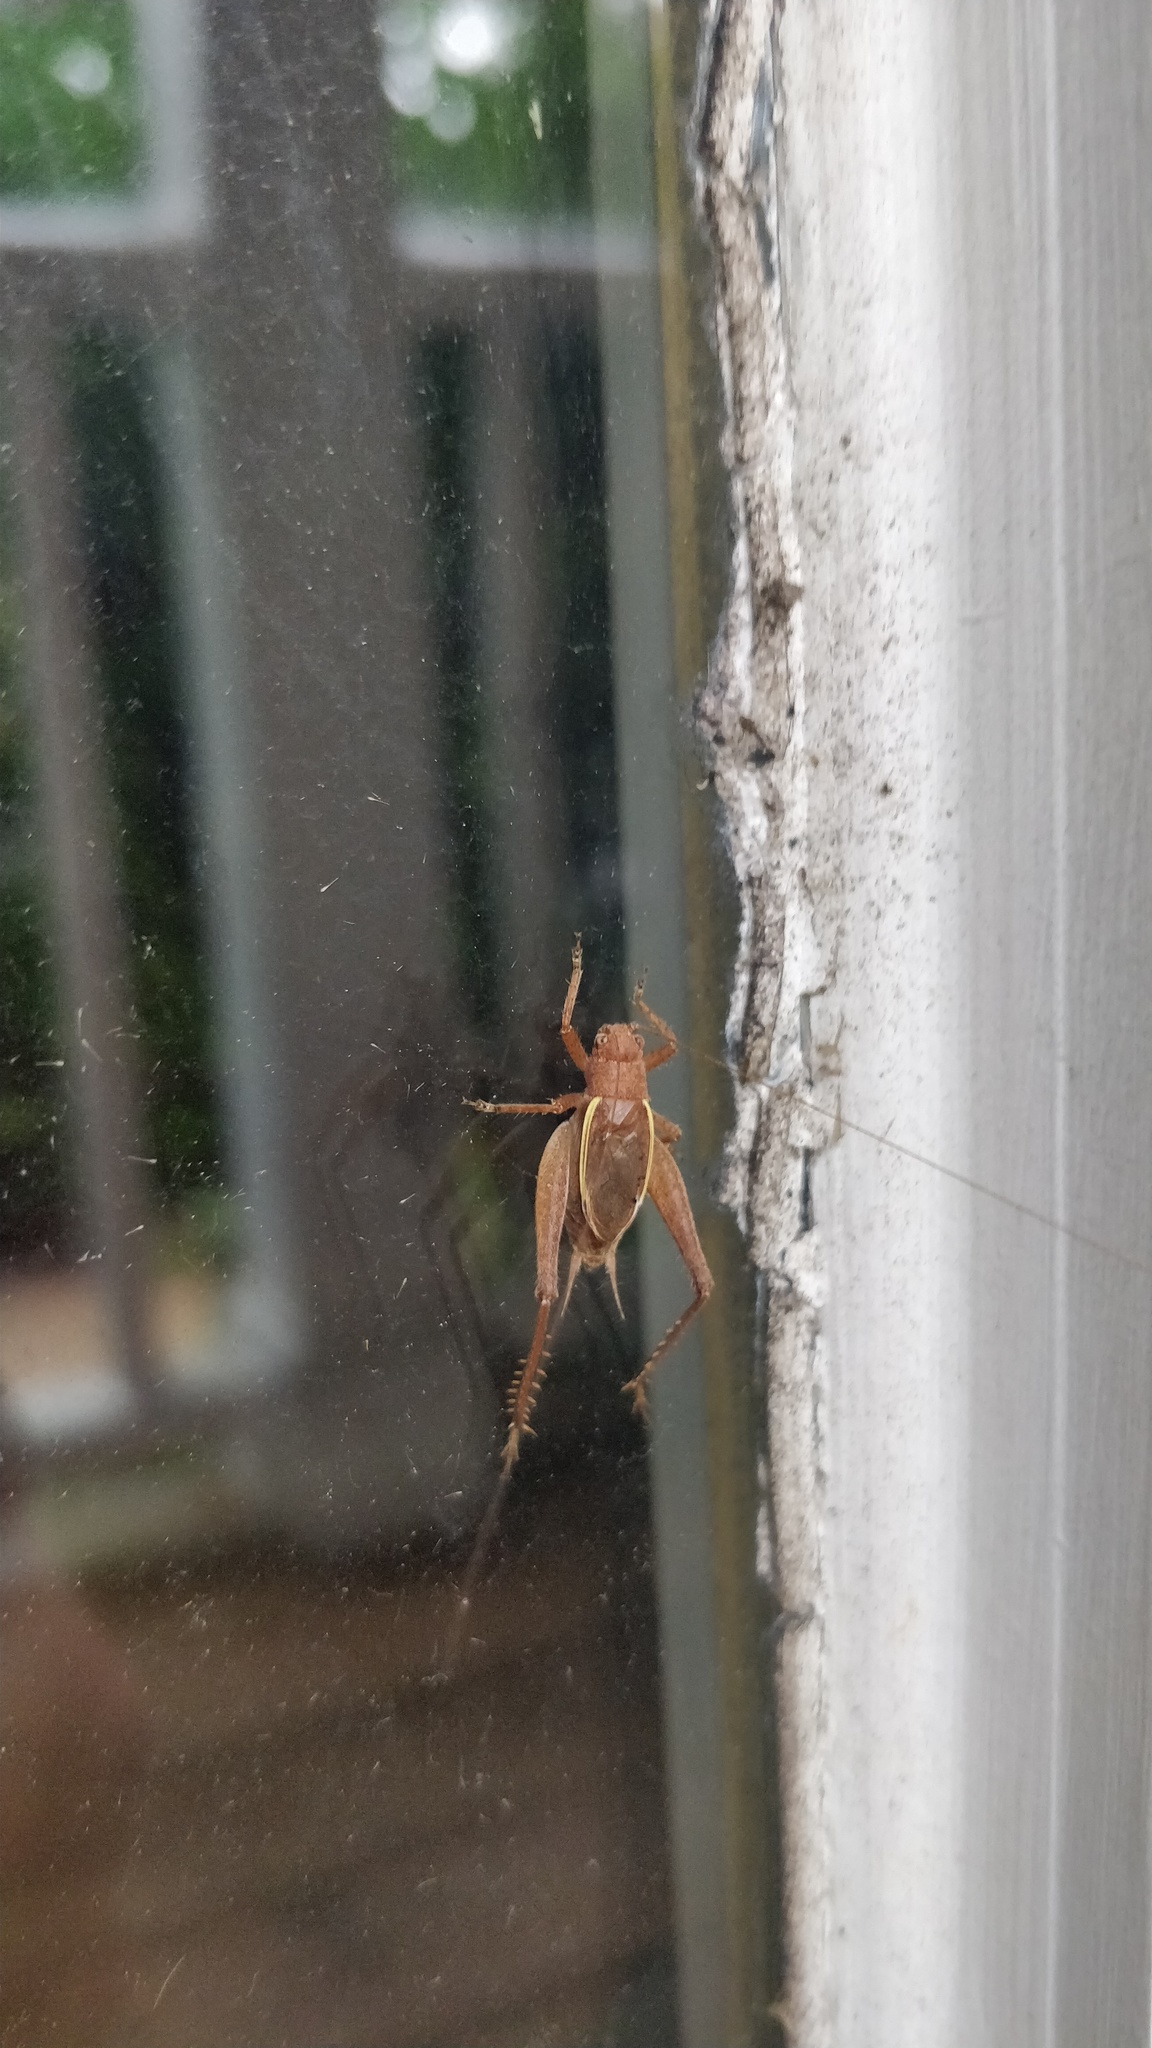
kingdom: Animalia
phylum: Arthropoda
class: Insecta
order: Orthoptera
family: Gryllidae
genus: Hapithus
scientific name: Hapithus agitator
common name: Restless bush cricket
